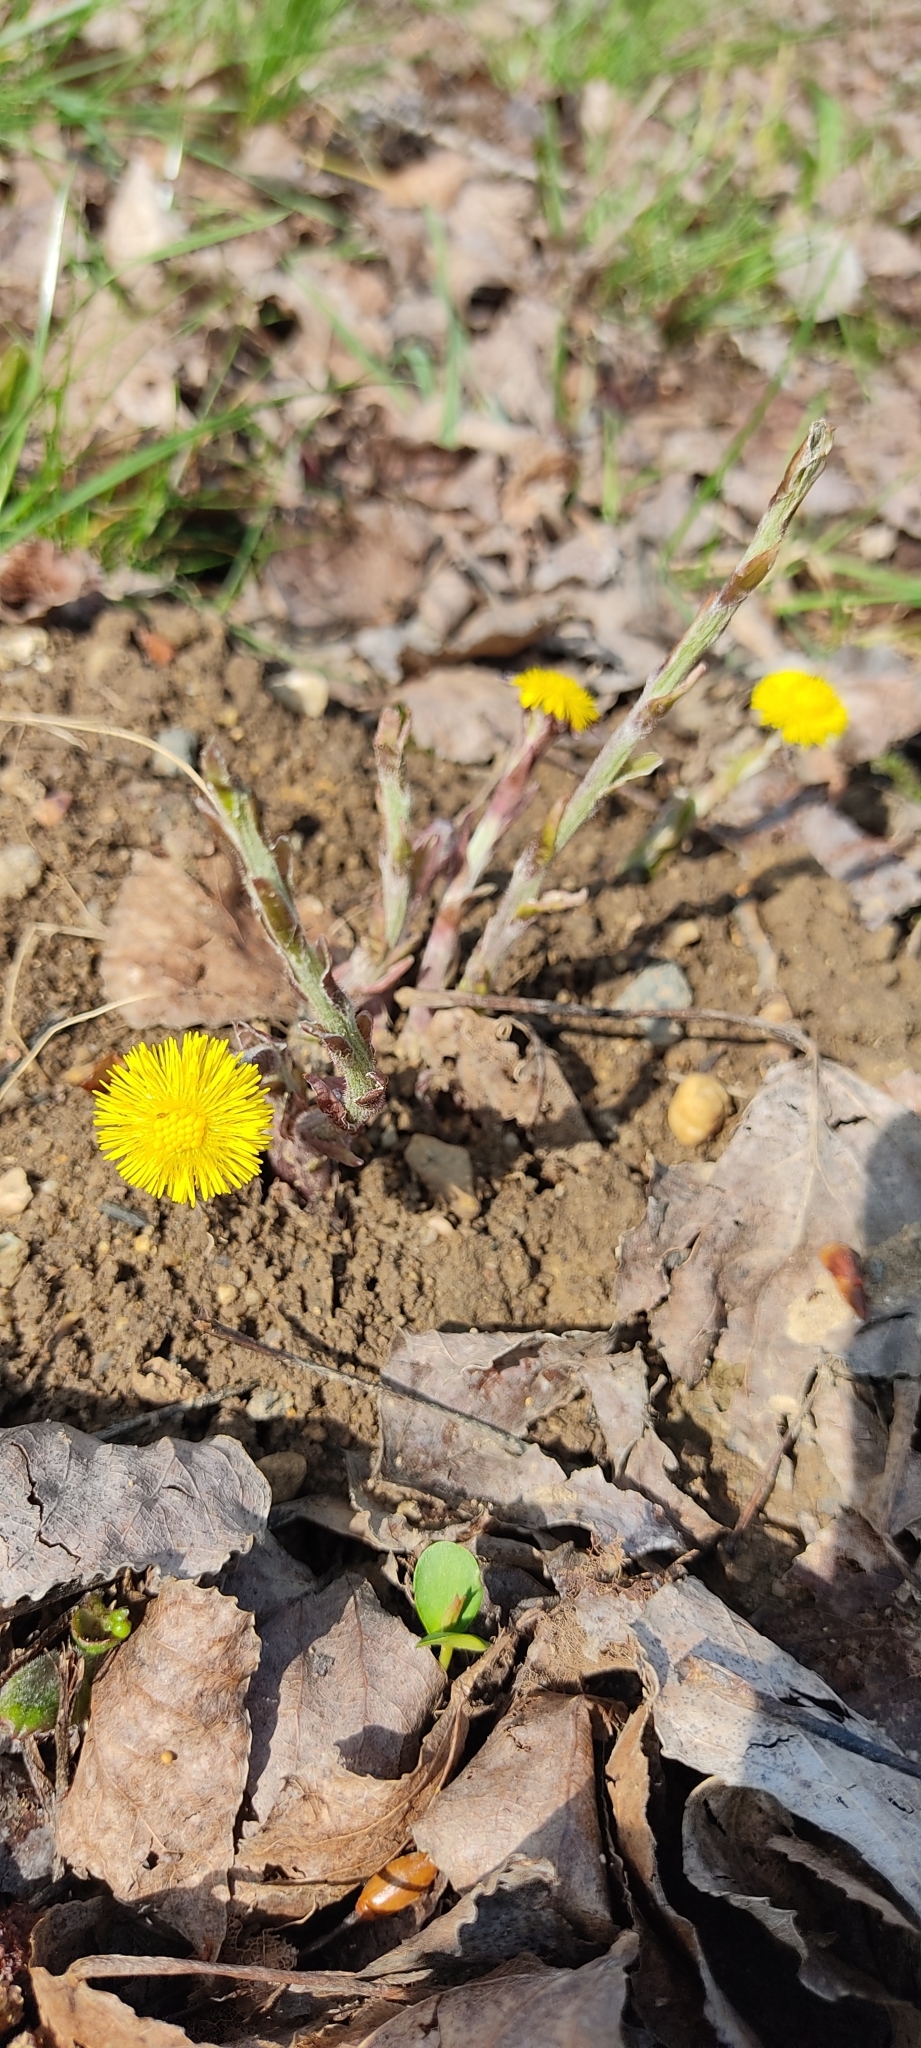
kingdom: Plantae
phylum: Tracheophyta
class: Magnoliopsida
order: Asterales
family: Asteraceae
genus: Tussilago
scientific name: Tussilago farfara
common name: Coltsfoot
